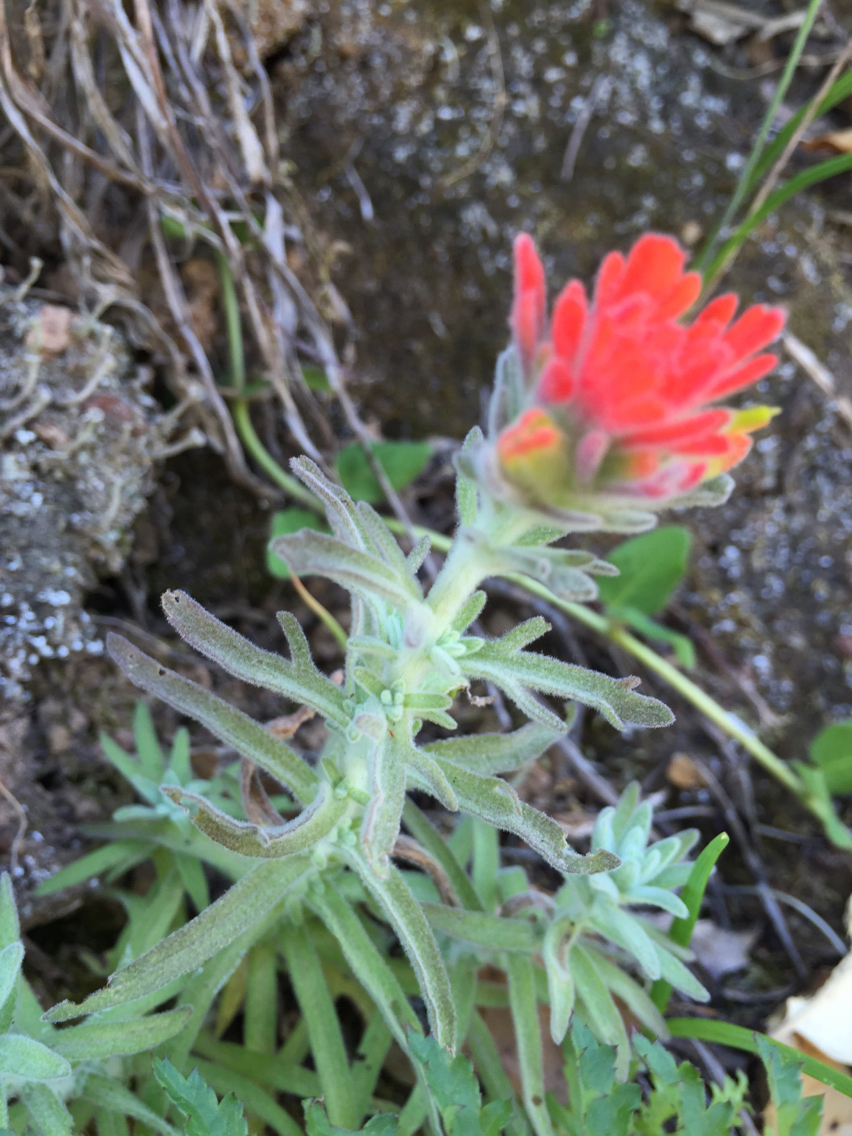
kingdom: Plantae
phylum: Tracheophyta
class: Magnoliopsida
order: Lamiales
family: Orobanchaceae
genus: Castilleja
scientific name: Castilleja foliolosa
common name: Woolly indian paintbrush
